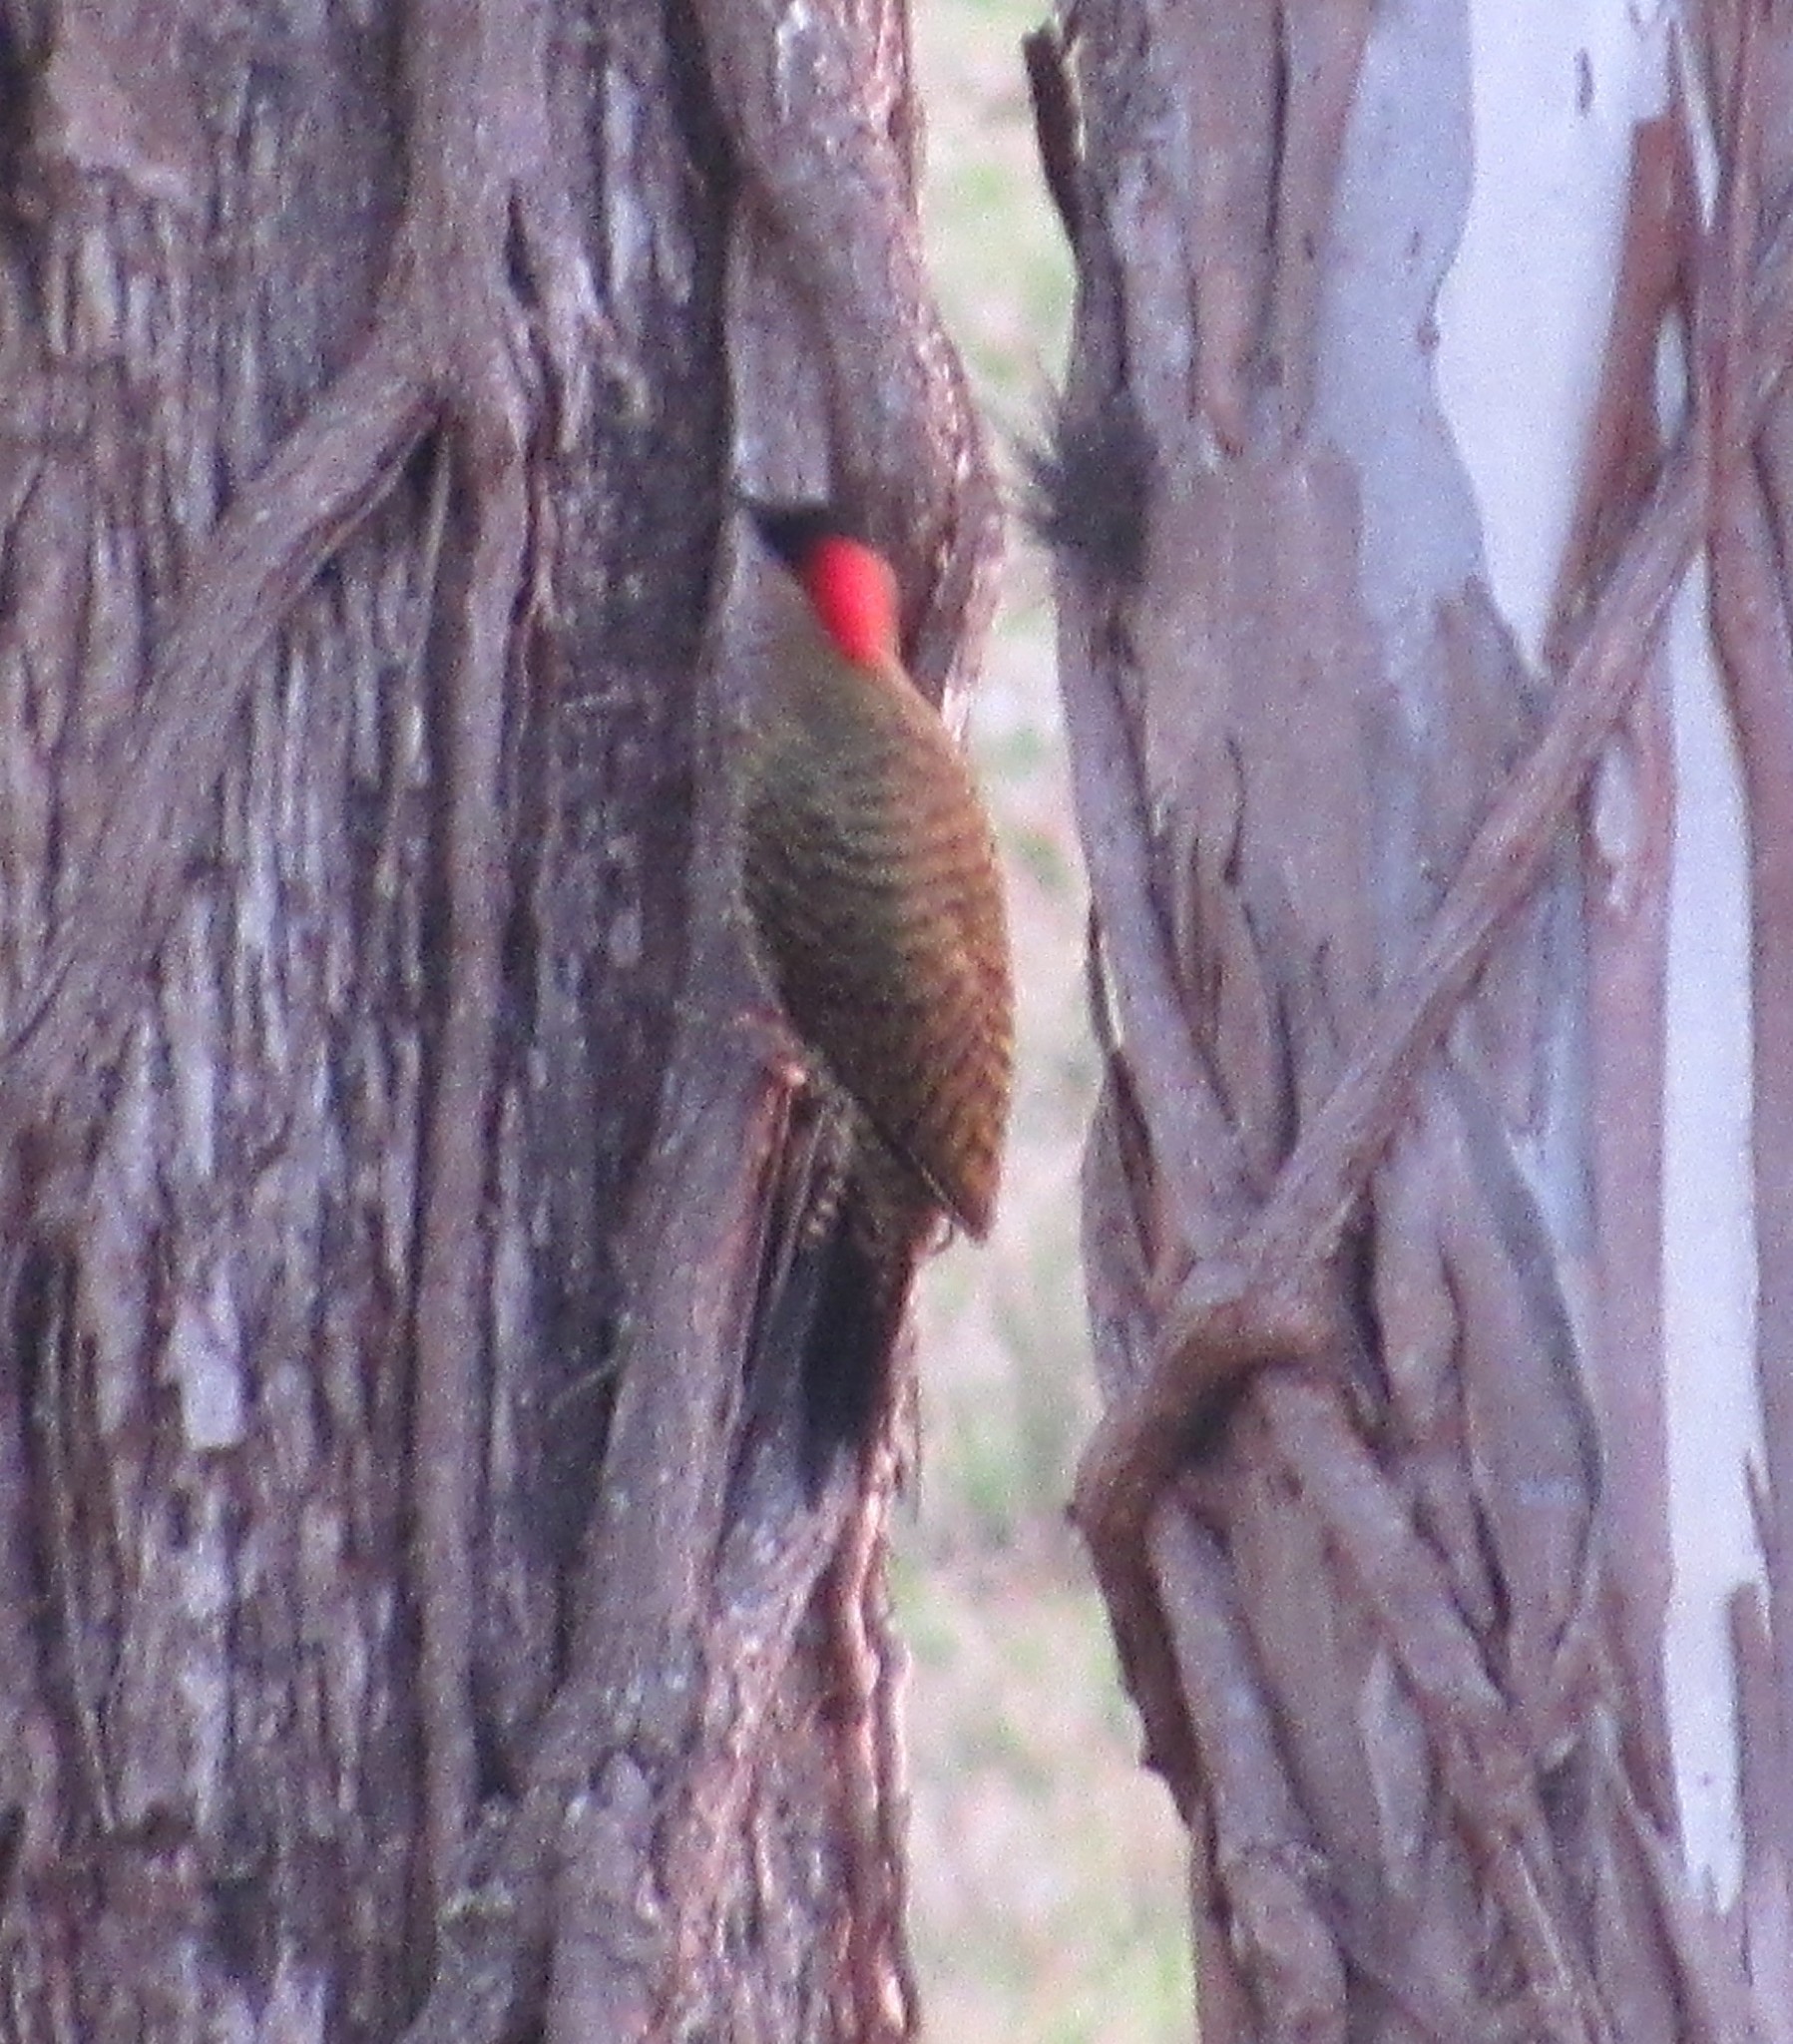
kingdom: Animalia
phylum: Chordata
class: Aves
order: Piciformes
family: Picidae
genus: Colaptes
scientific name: Colaptes melanochloros
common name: Green-barred woodpecker
